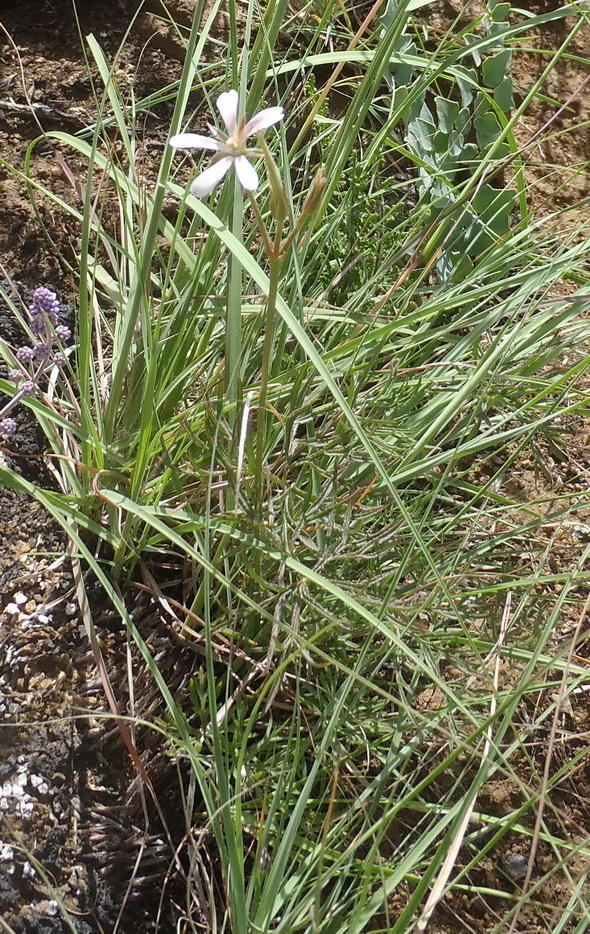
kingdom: Plantae
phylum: Tracheophyta
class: Magnoliopsida
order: Geraniales
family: Geraniaceae
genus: Pelargonium
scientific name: Pelargonium aridum
